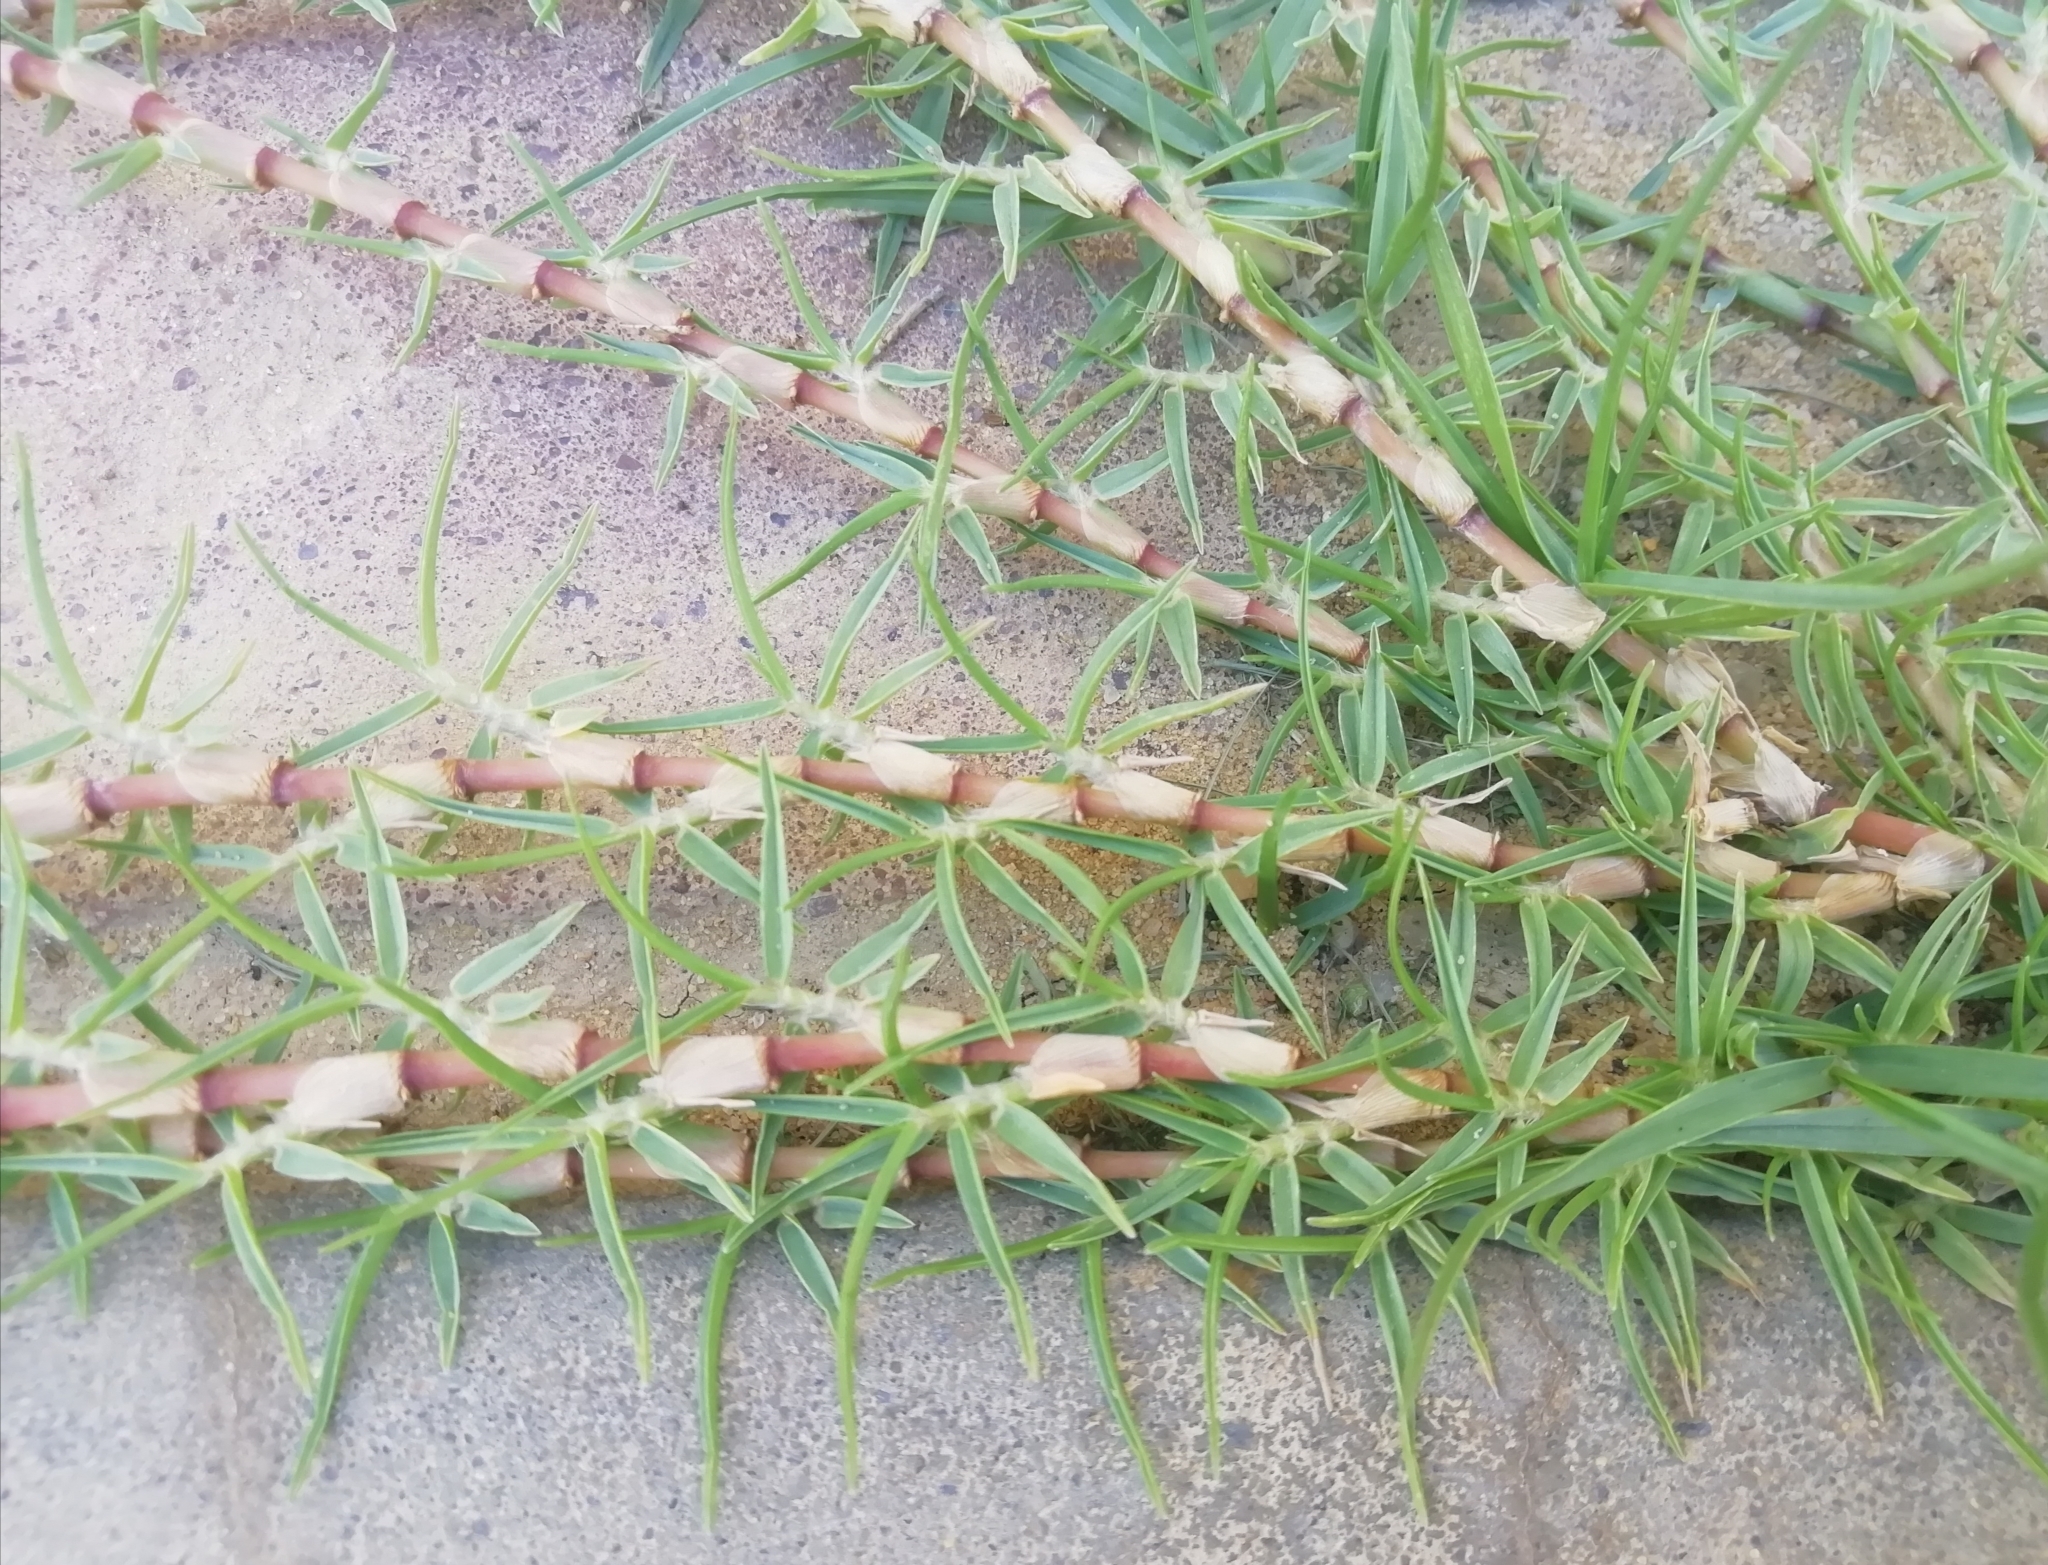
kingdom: Plantae
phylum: Tracheophyta
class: Liliopsida
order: Poales
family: Poaceae
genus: Cenchrus
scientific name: Cenchrus clandestinus
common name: Kikuyugrass
